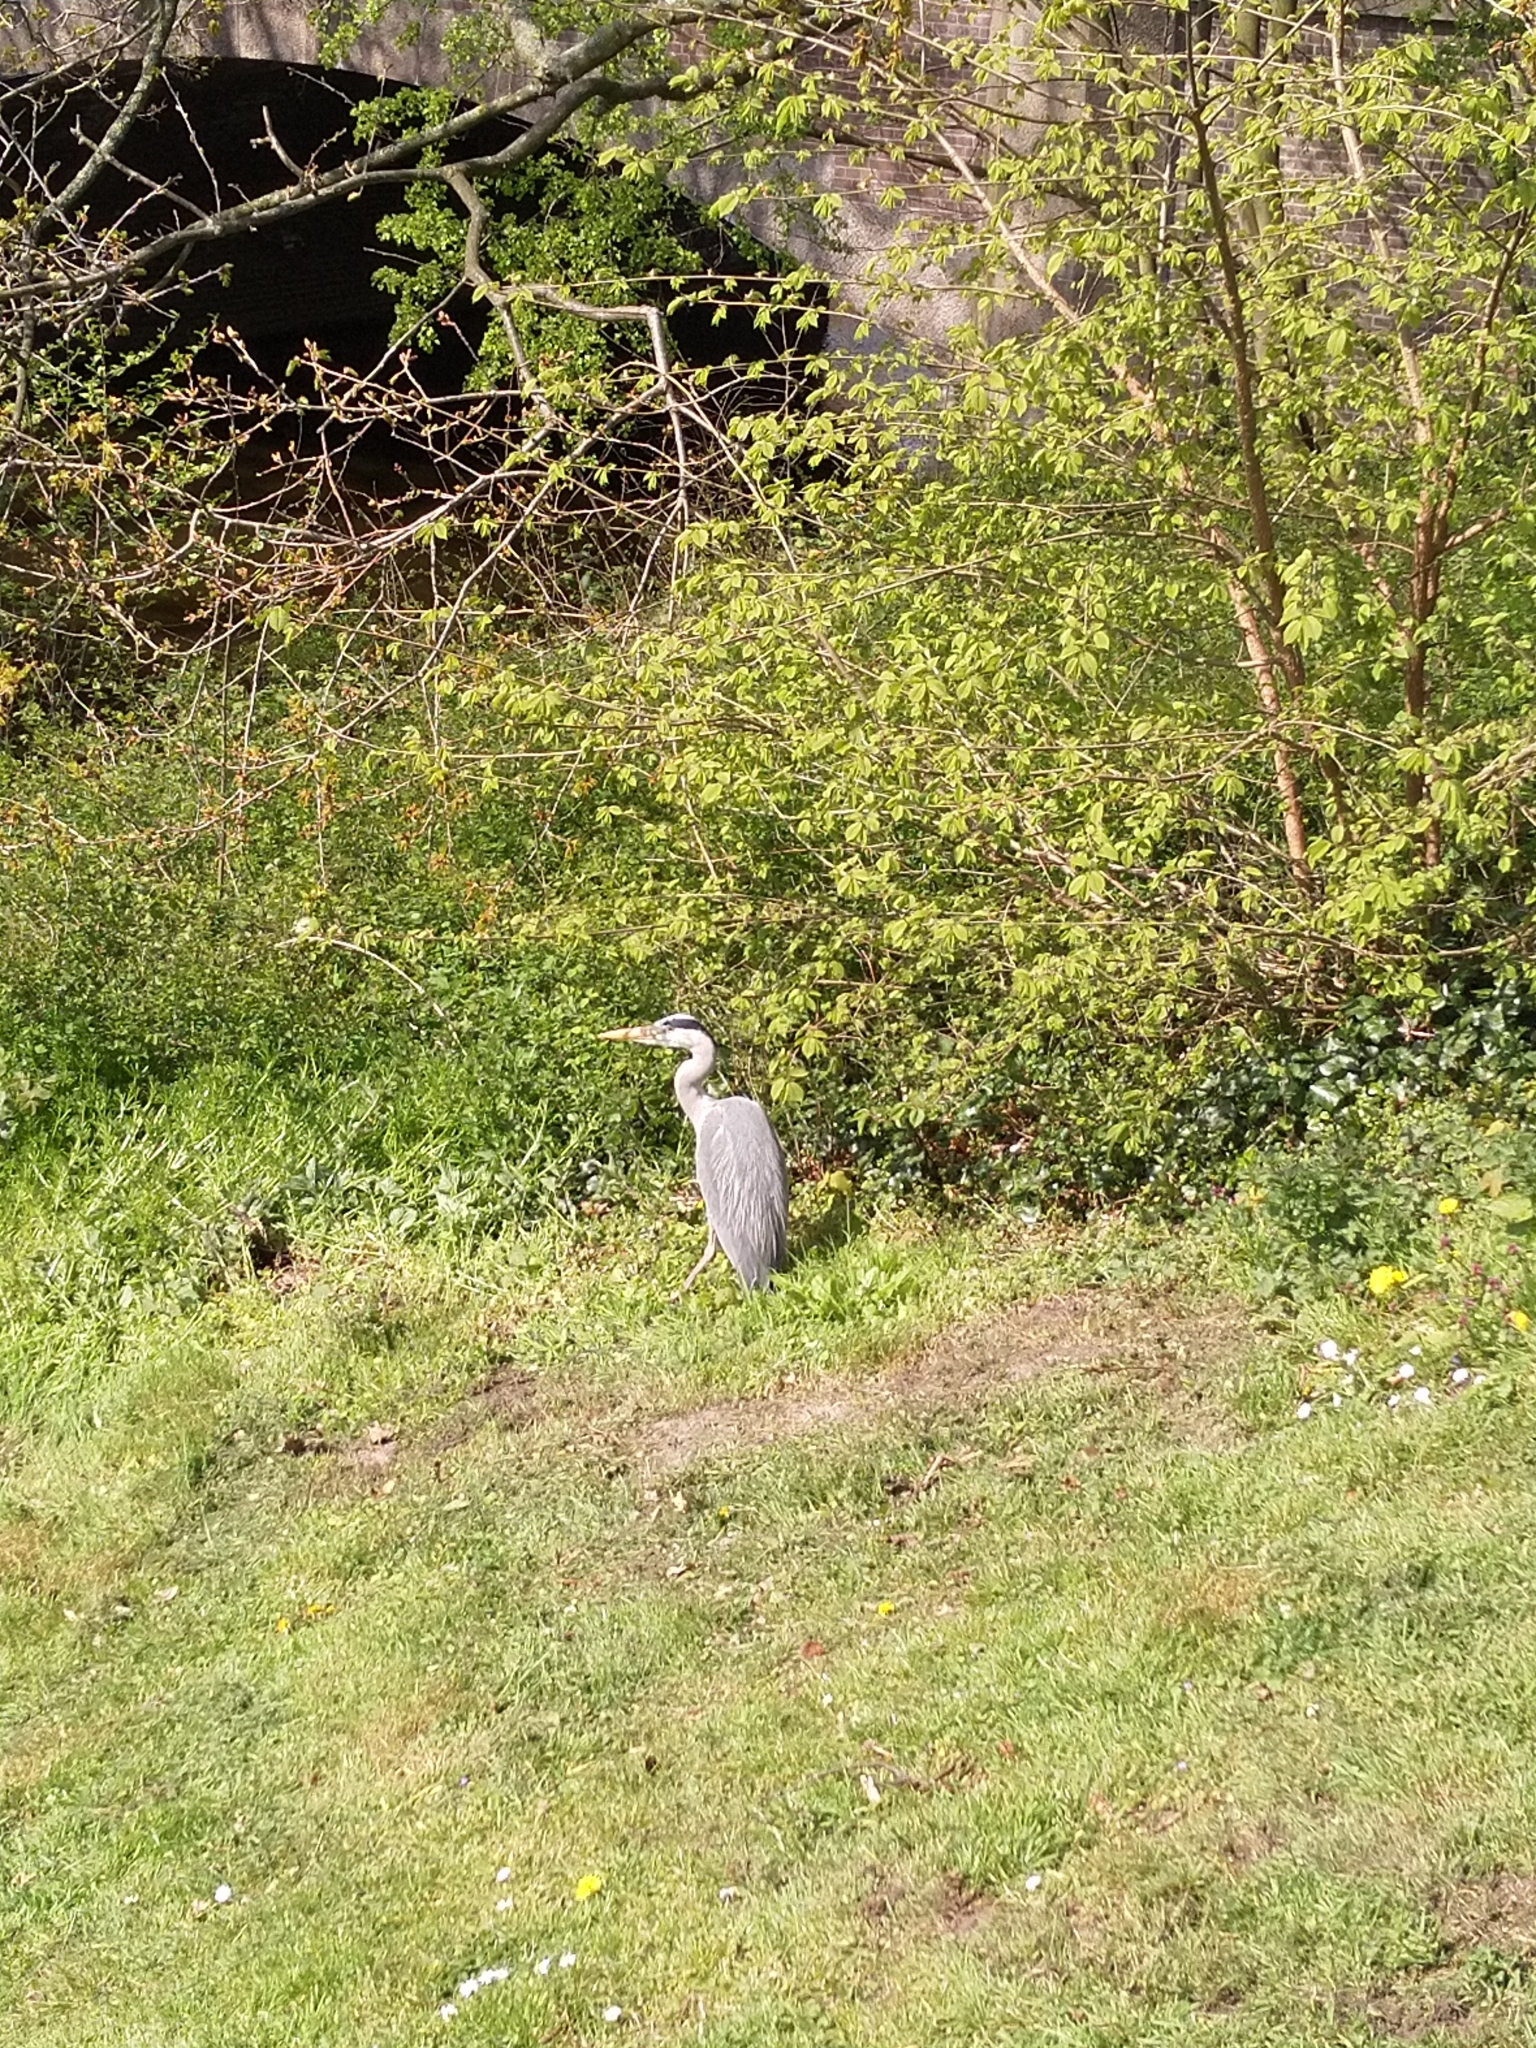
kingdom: Animalia
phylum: Chordata
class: Aves
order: Pelecaniformes
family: Ardeidae
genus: Ardea
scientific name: Ardea cinerea
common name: Grey heron
